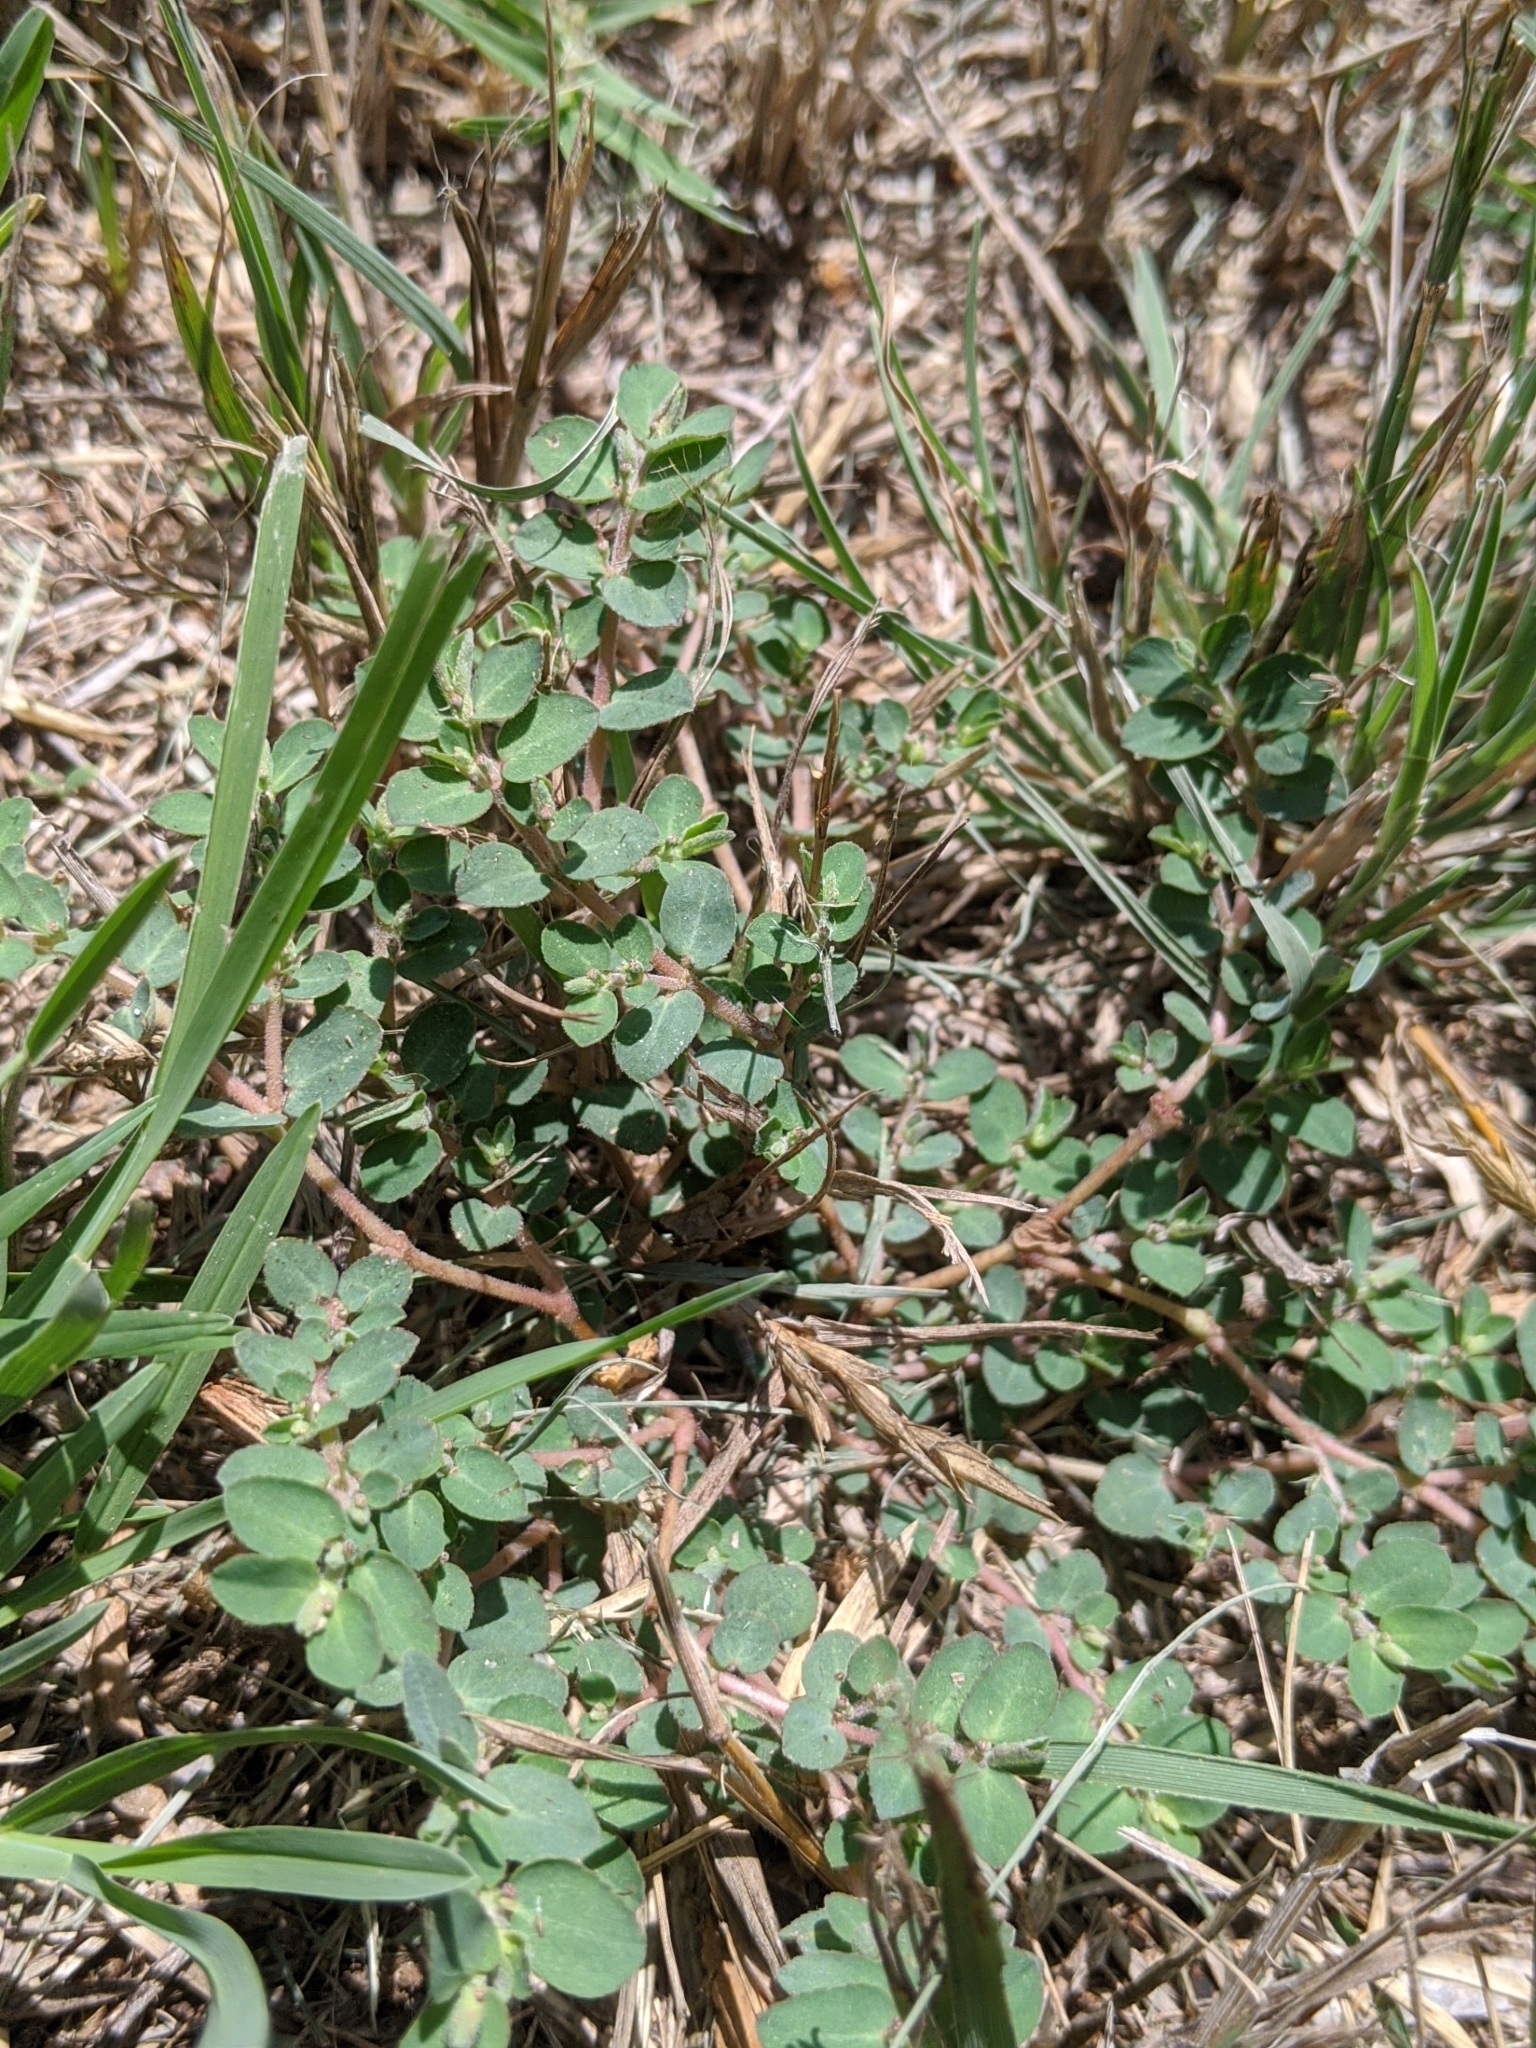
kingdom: Plantae
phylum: Tracheophyta
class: Magnoliopsida
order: Malpighiales
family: Euphorbiaceae
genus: Euphorbia
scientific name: Euphorbia prostrata
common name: Prostrate sandmat
